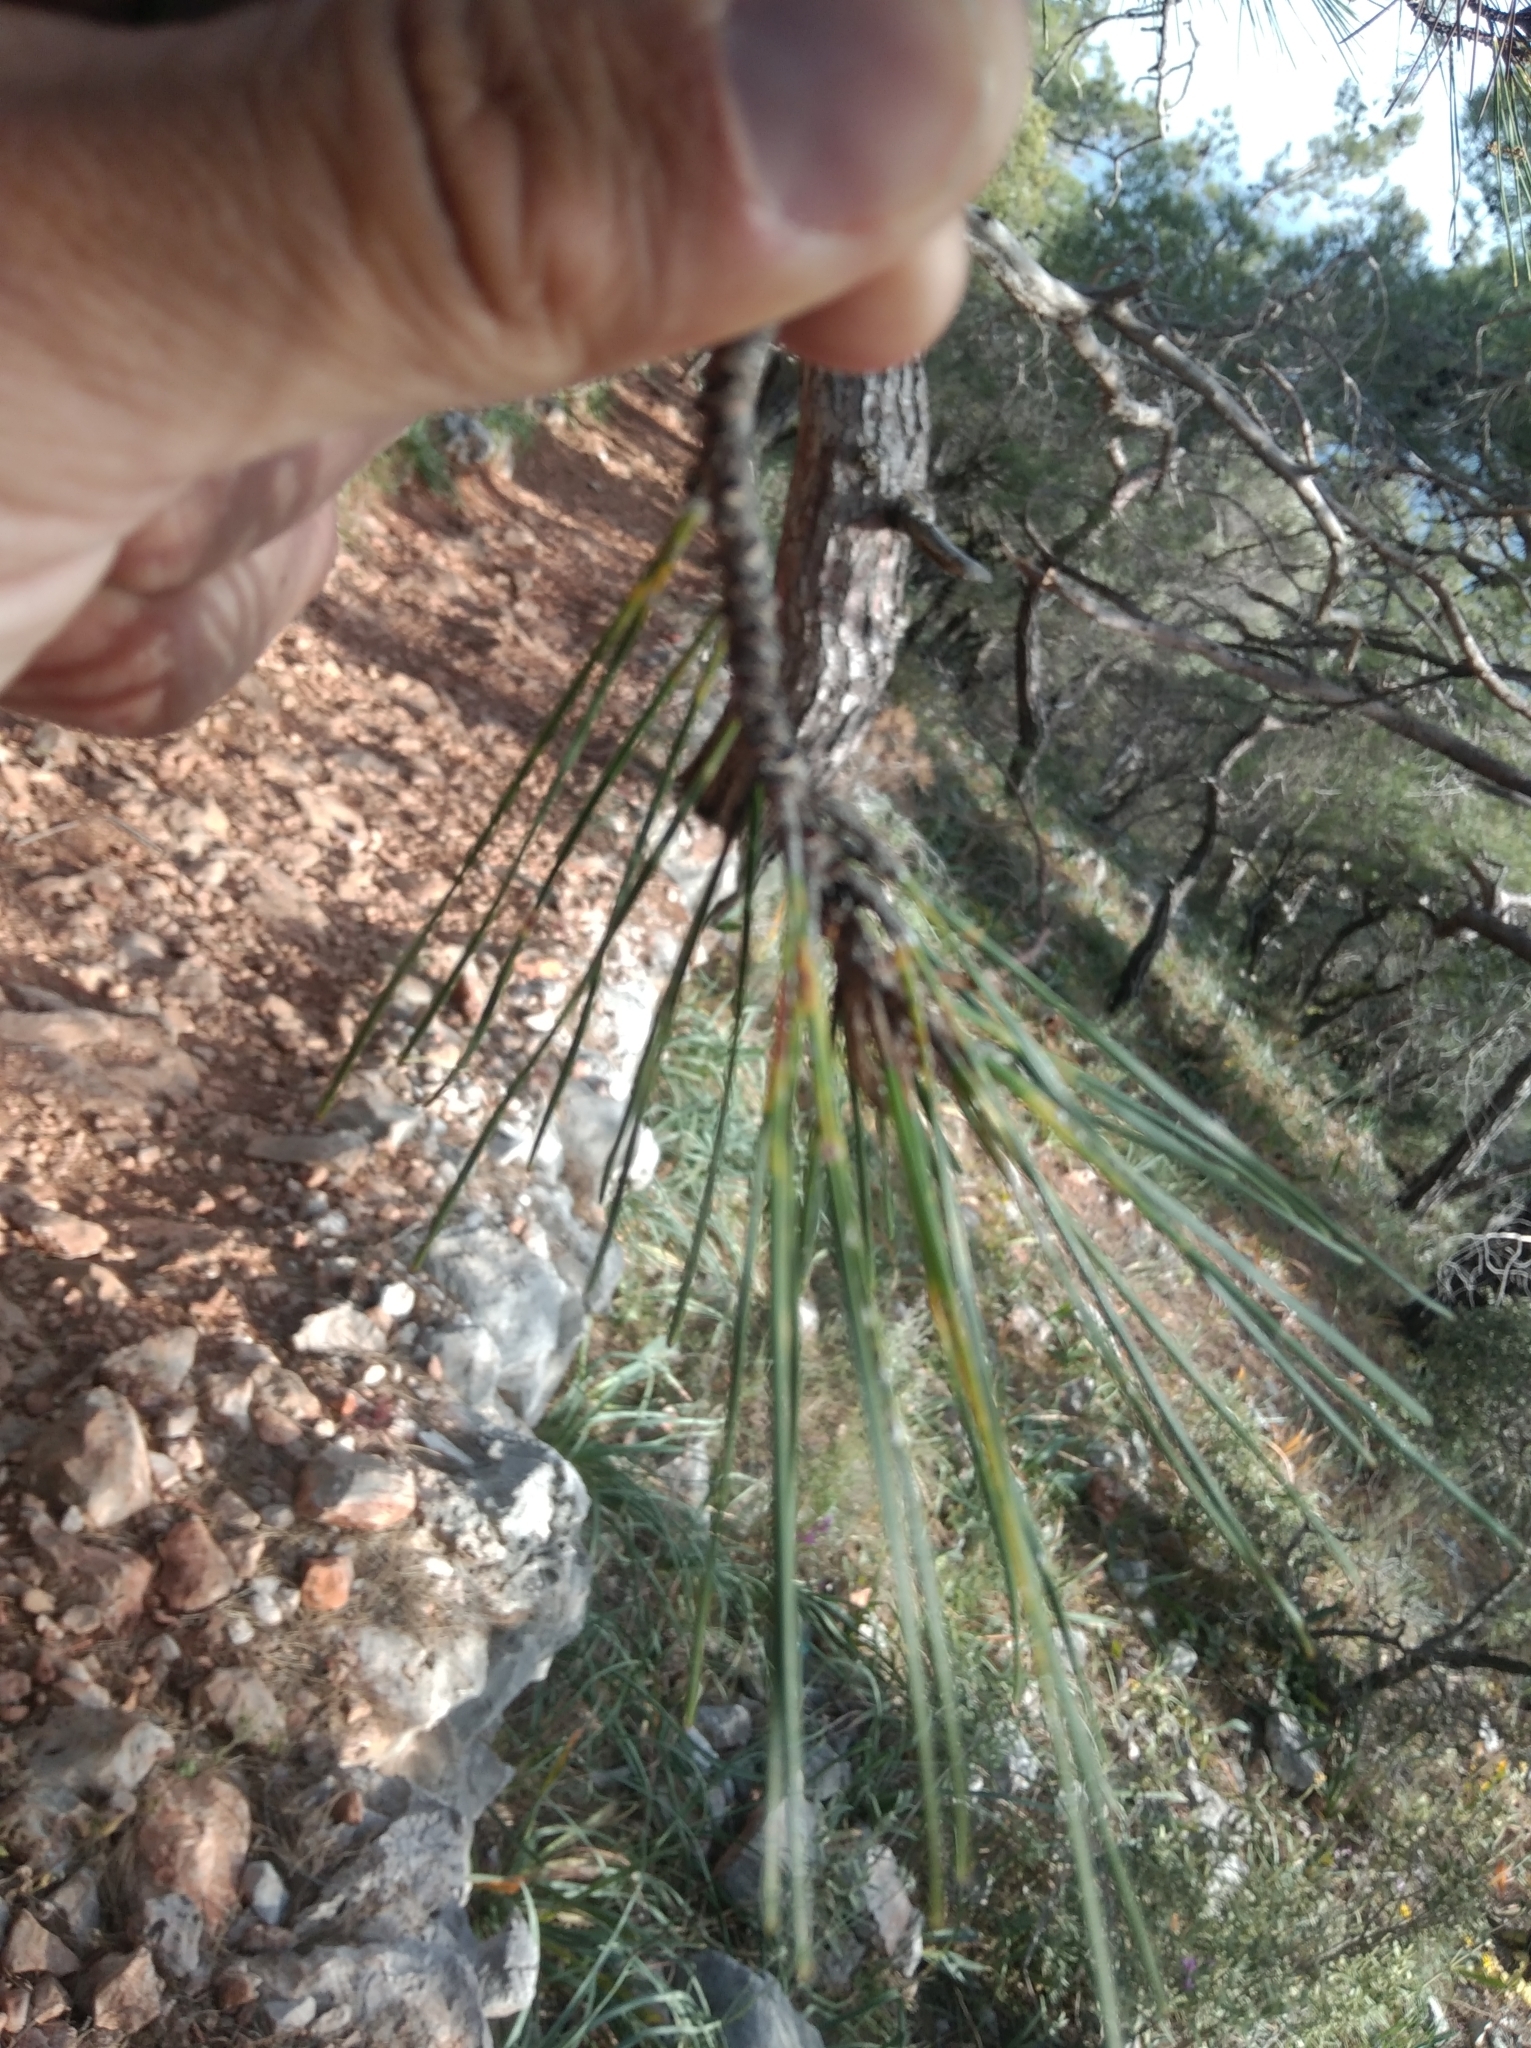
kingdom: Plantae
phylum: Tracheophyta
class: Pinopsida
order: Pinales
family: Pinaceae
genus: Pinus
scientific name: Pinus brutia
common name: Turkish pine
